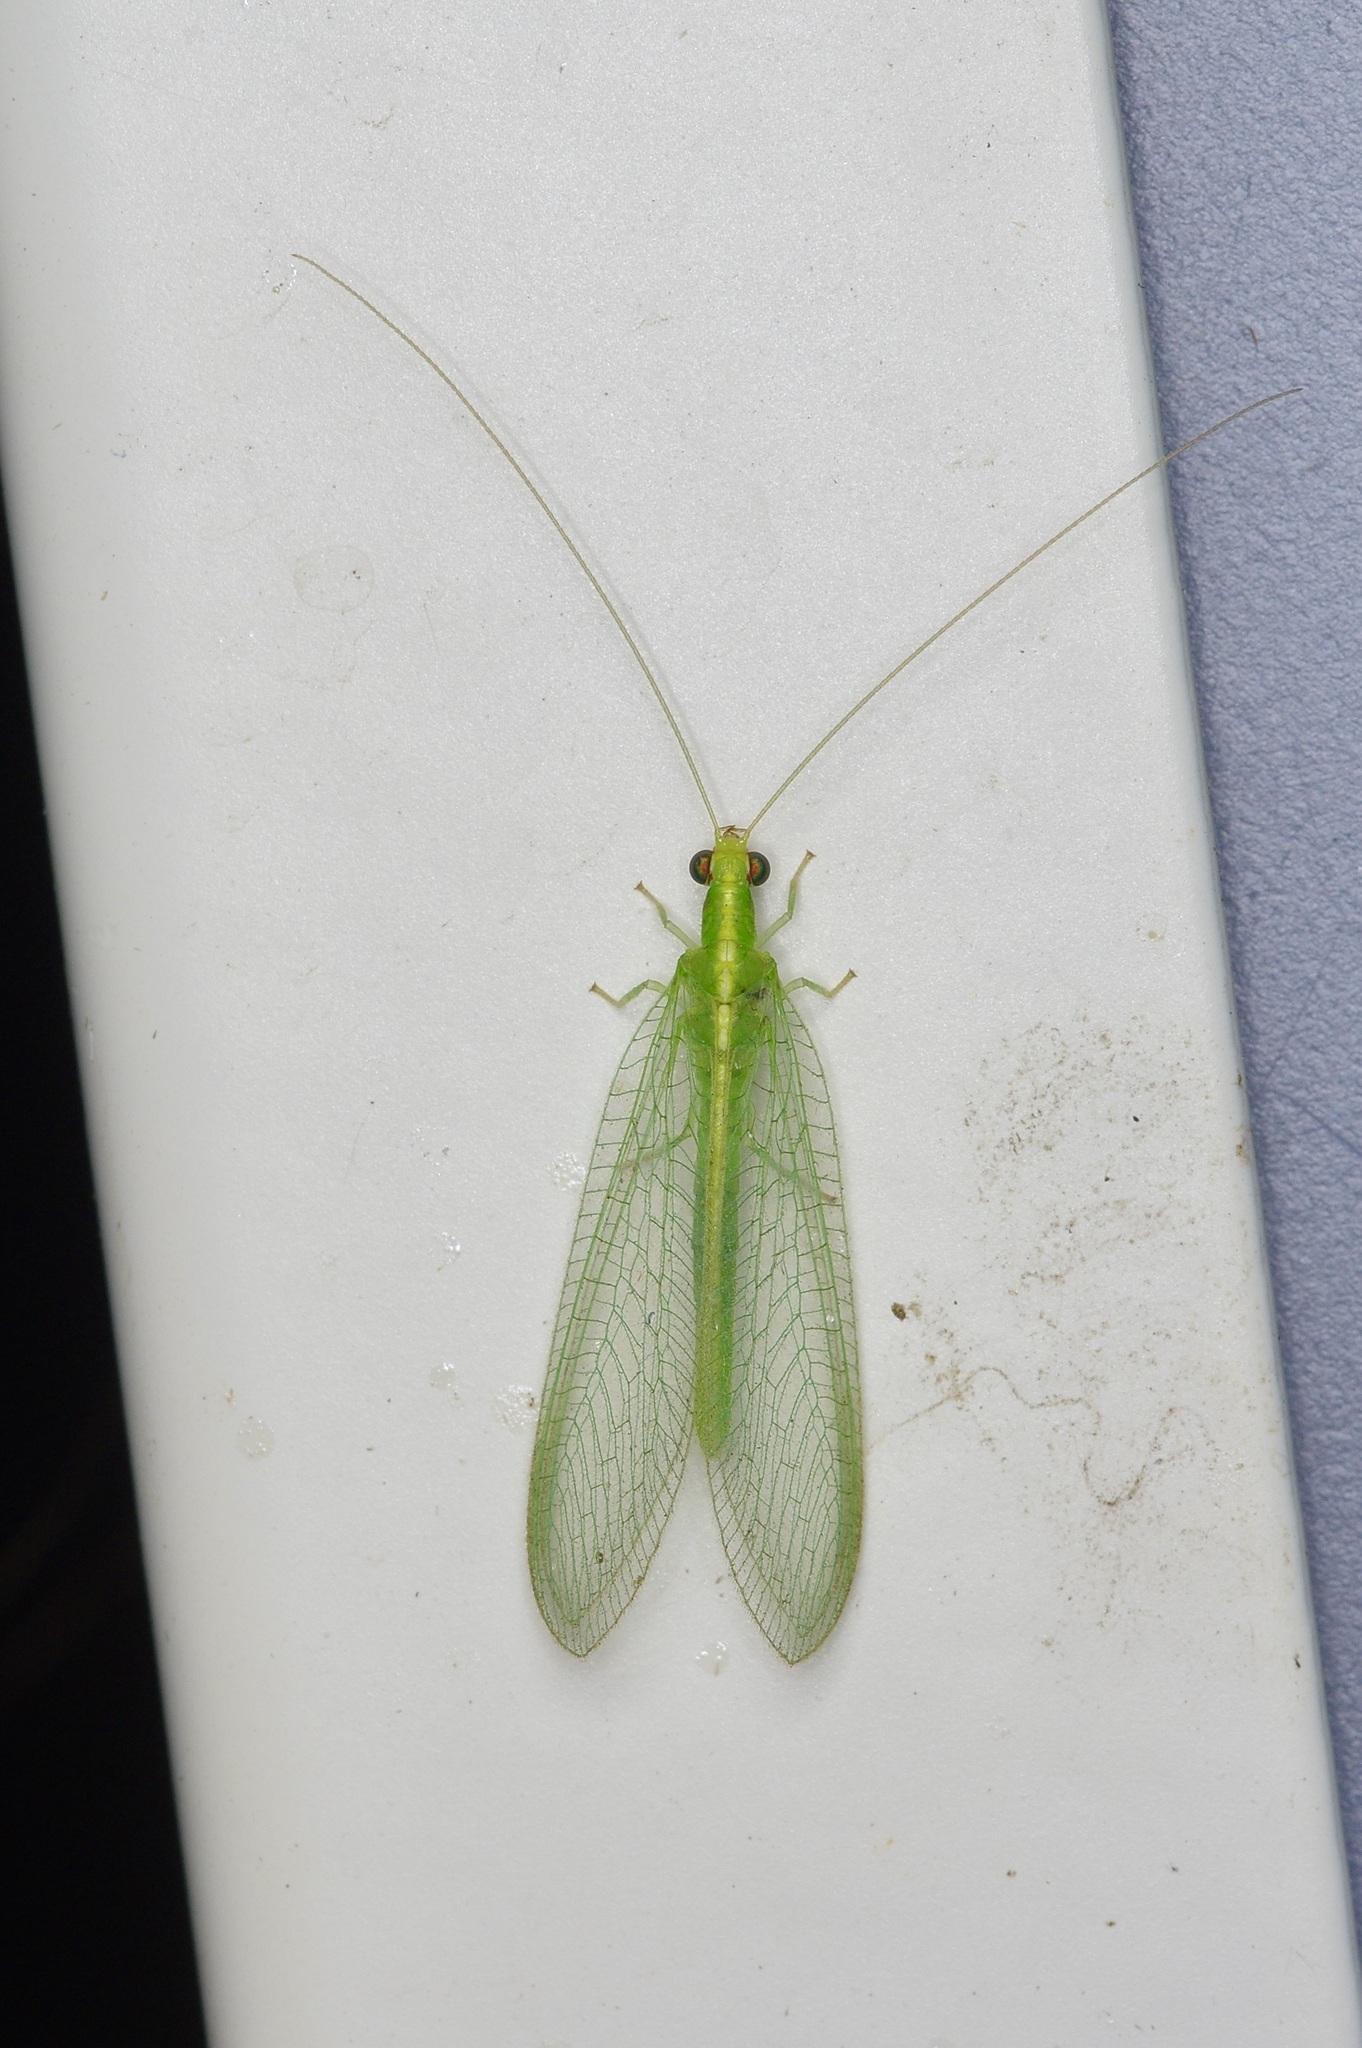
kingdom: Animalia
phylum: Arthropoda
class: Insecta
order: Neuroptera
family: Chrysopidae
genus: Chrysoperla
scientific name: Chrysoperla rufilabris
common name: Red-lipped green lacewing
